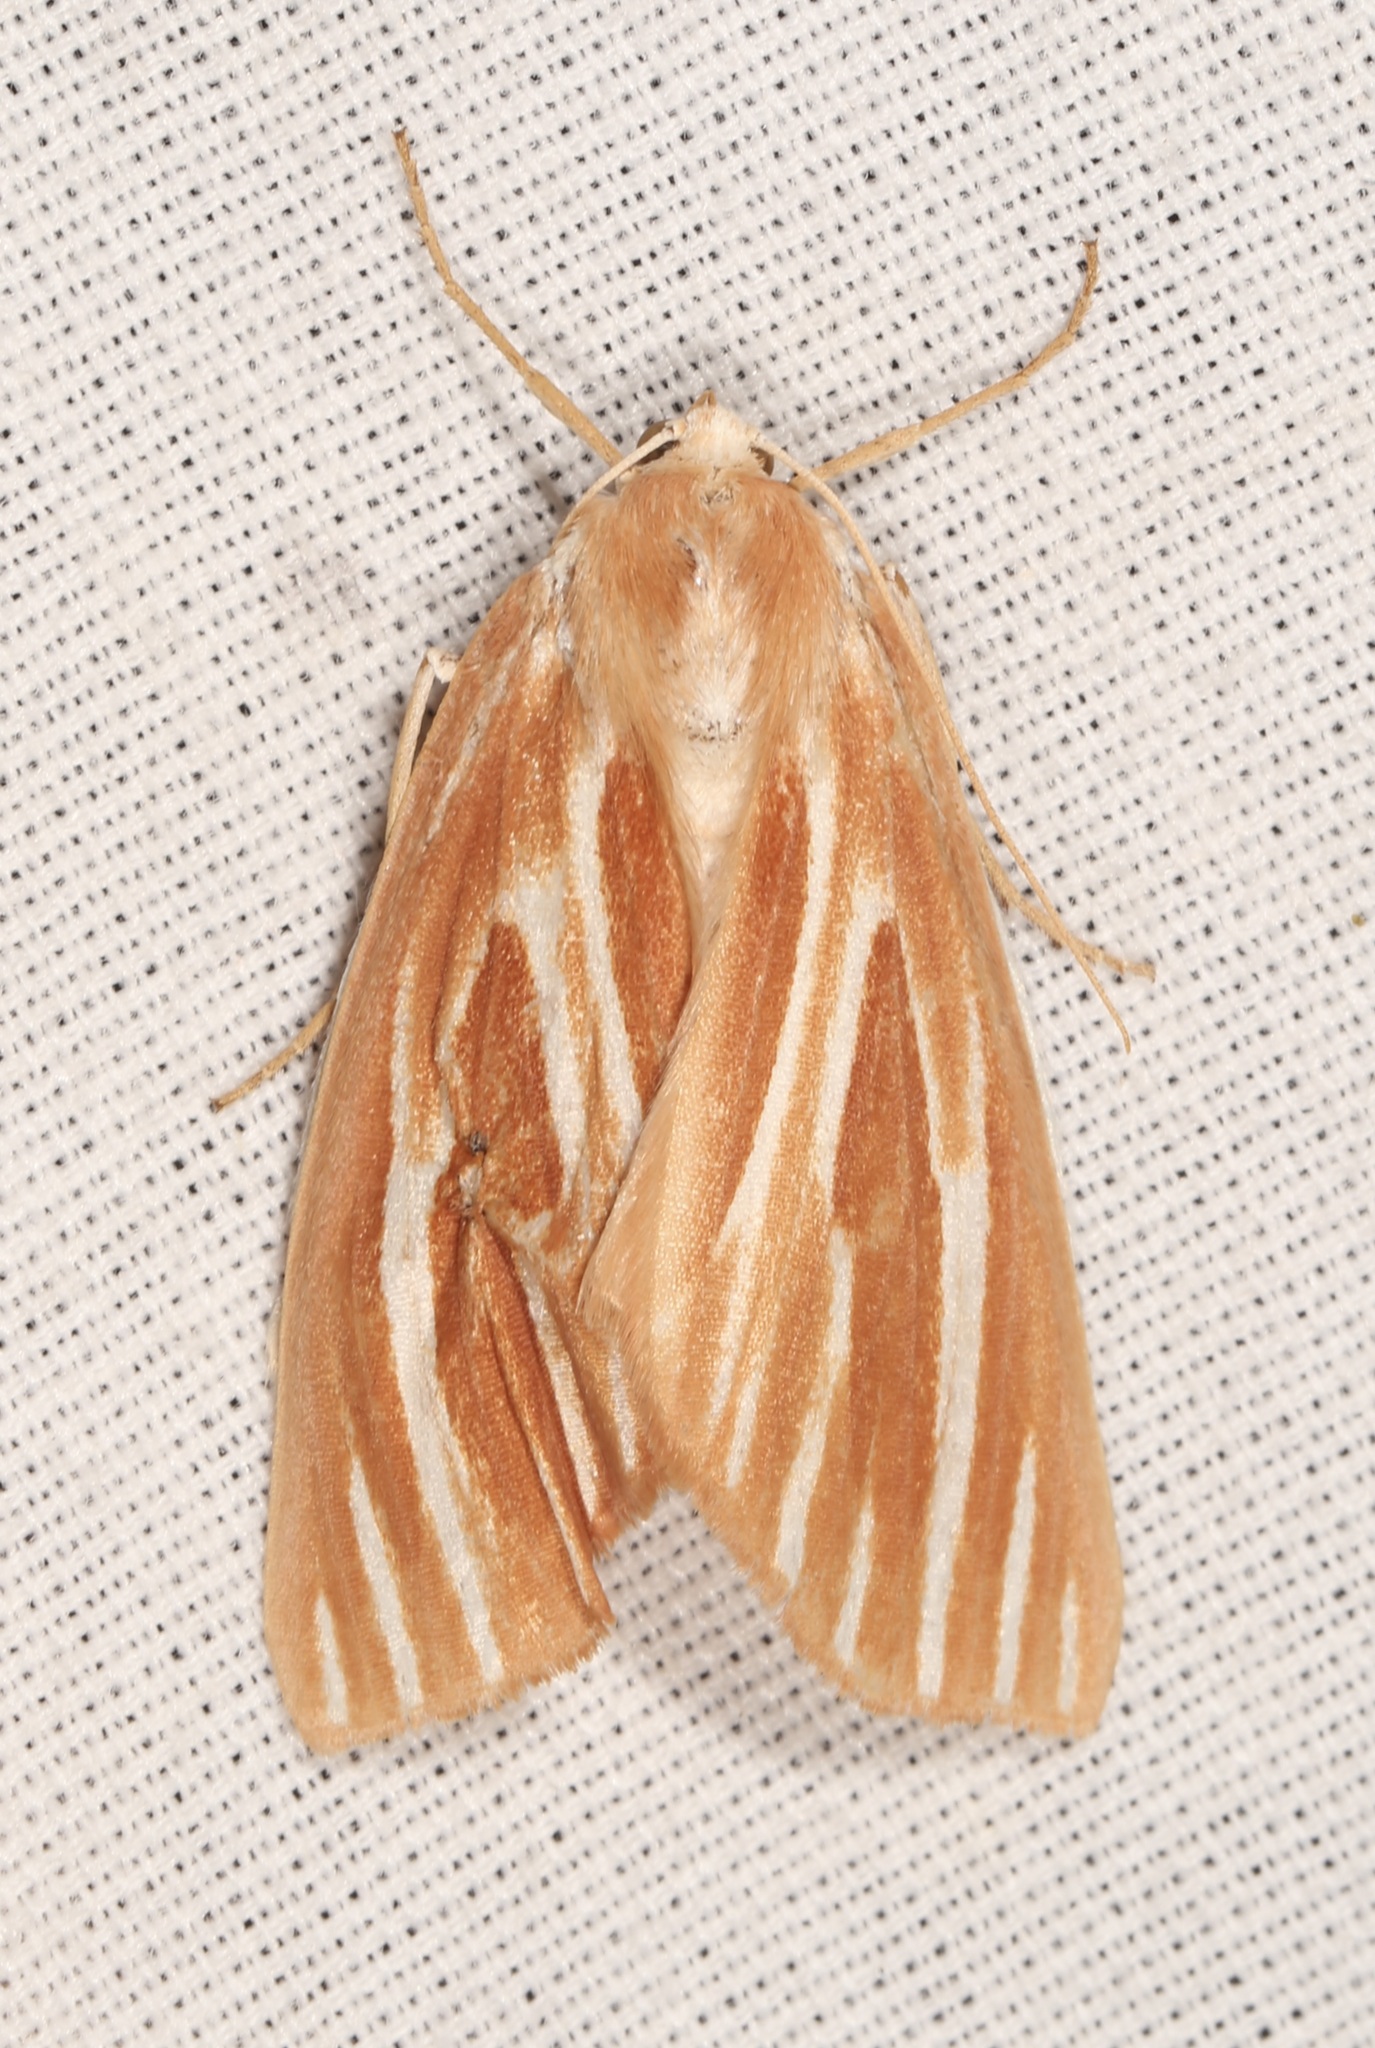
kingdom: Animalia
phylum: Arthropoda
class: Insecta
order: Lepidoptera
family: Geometridae
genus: Sabulodes
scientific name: Sabulodes niveostriata
